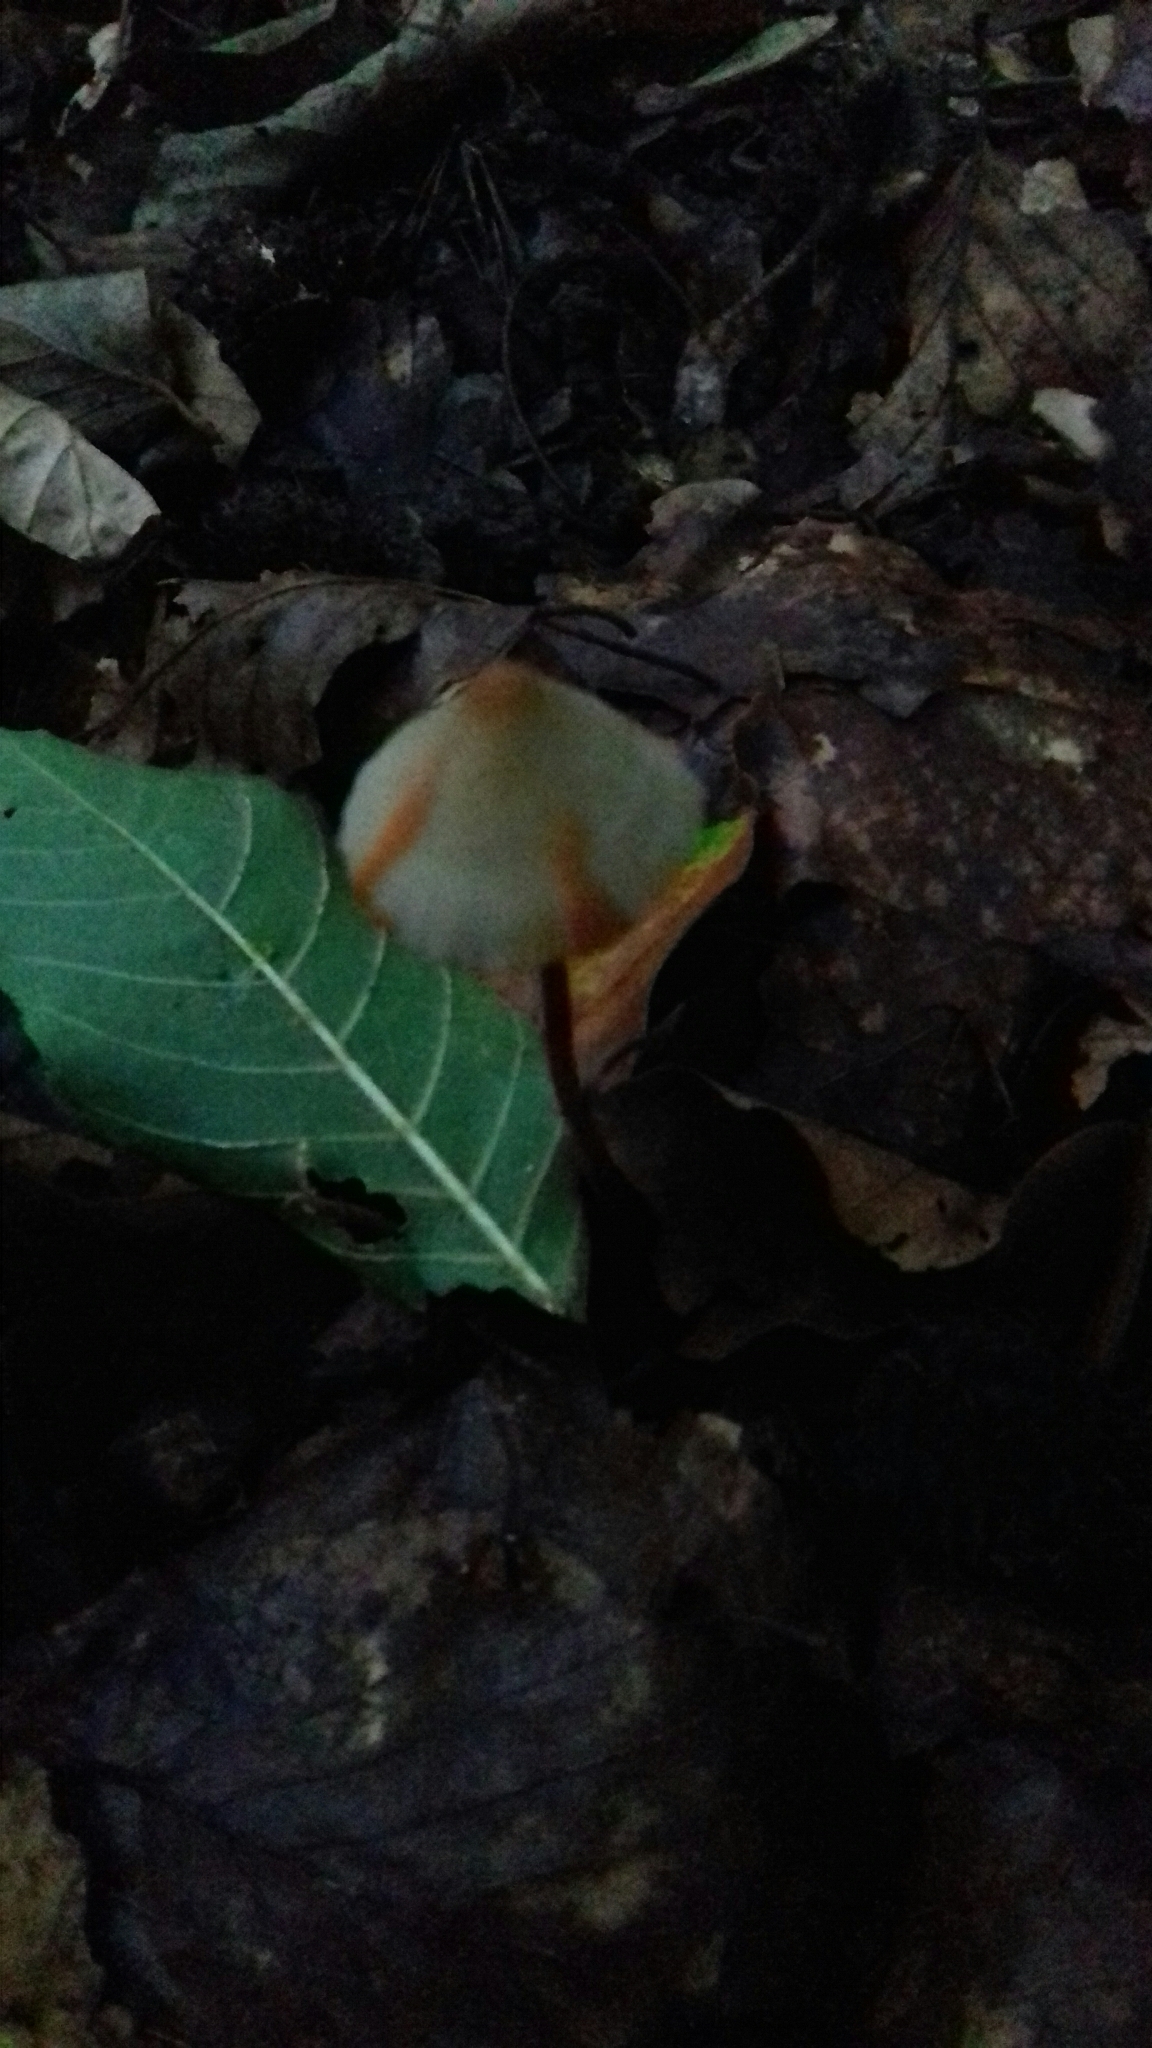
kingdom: Fungi
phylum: Basidiomycota
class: Agaricomycetes
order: Agaricales
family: Mycenaceae
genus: Mycena
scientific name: Mycena haematopus
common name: Burgundydrop bonnet
